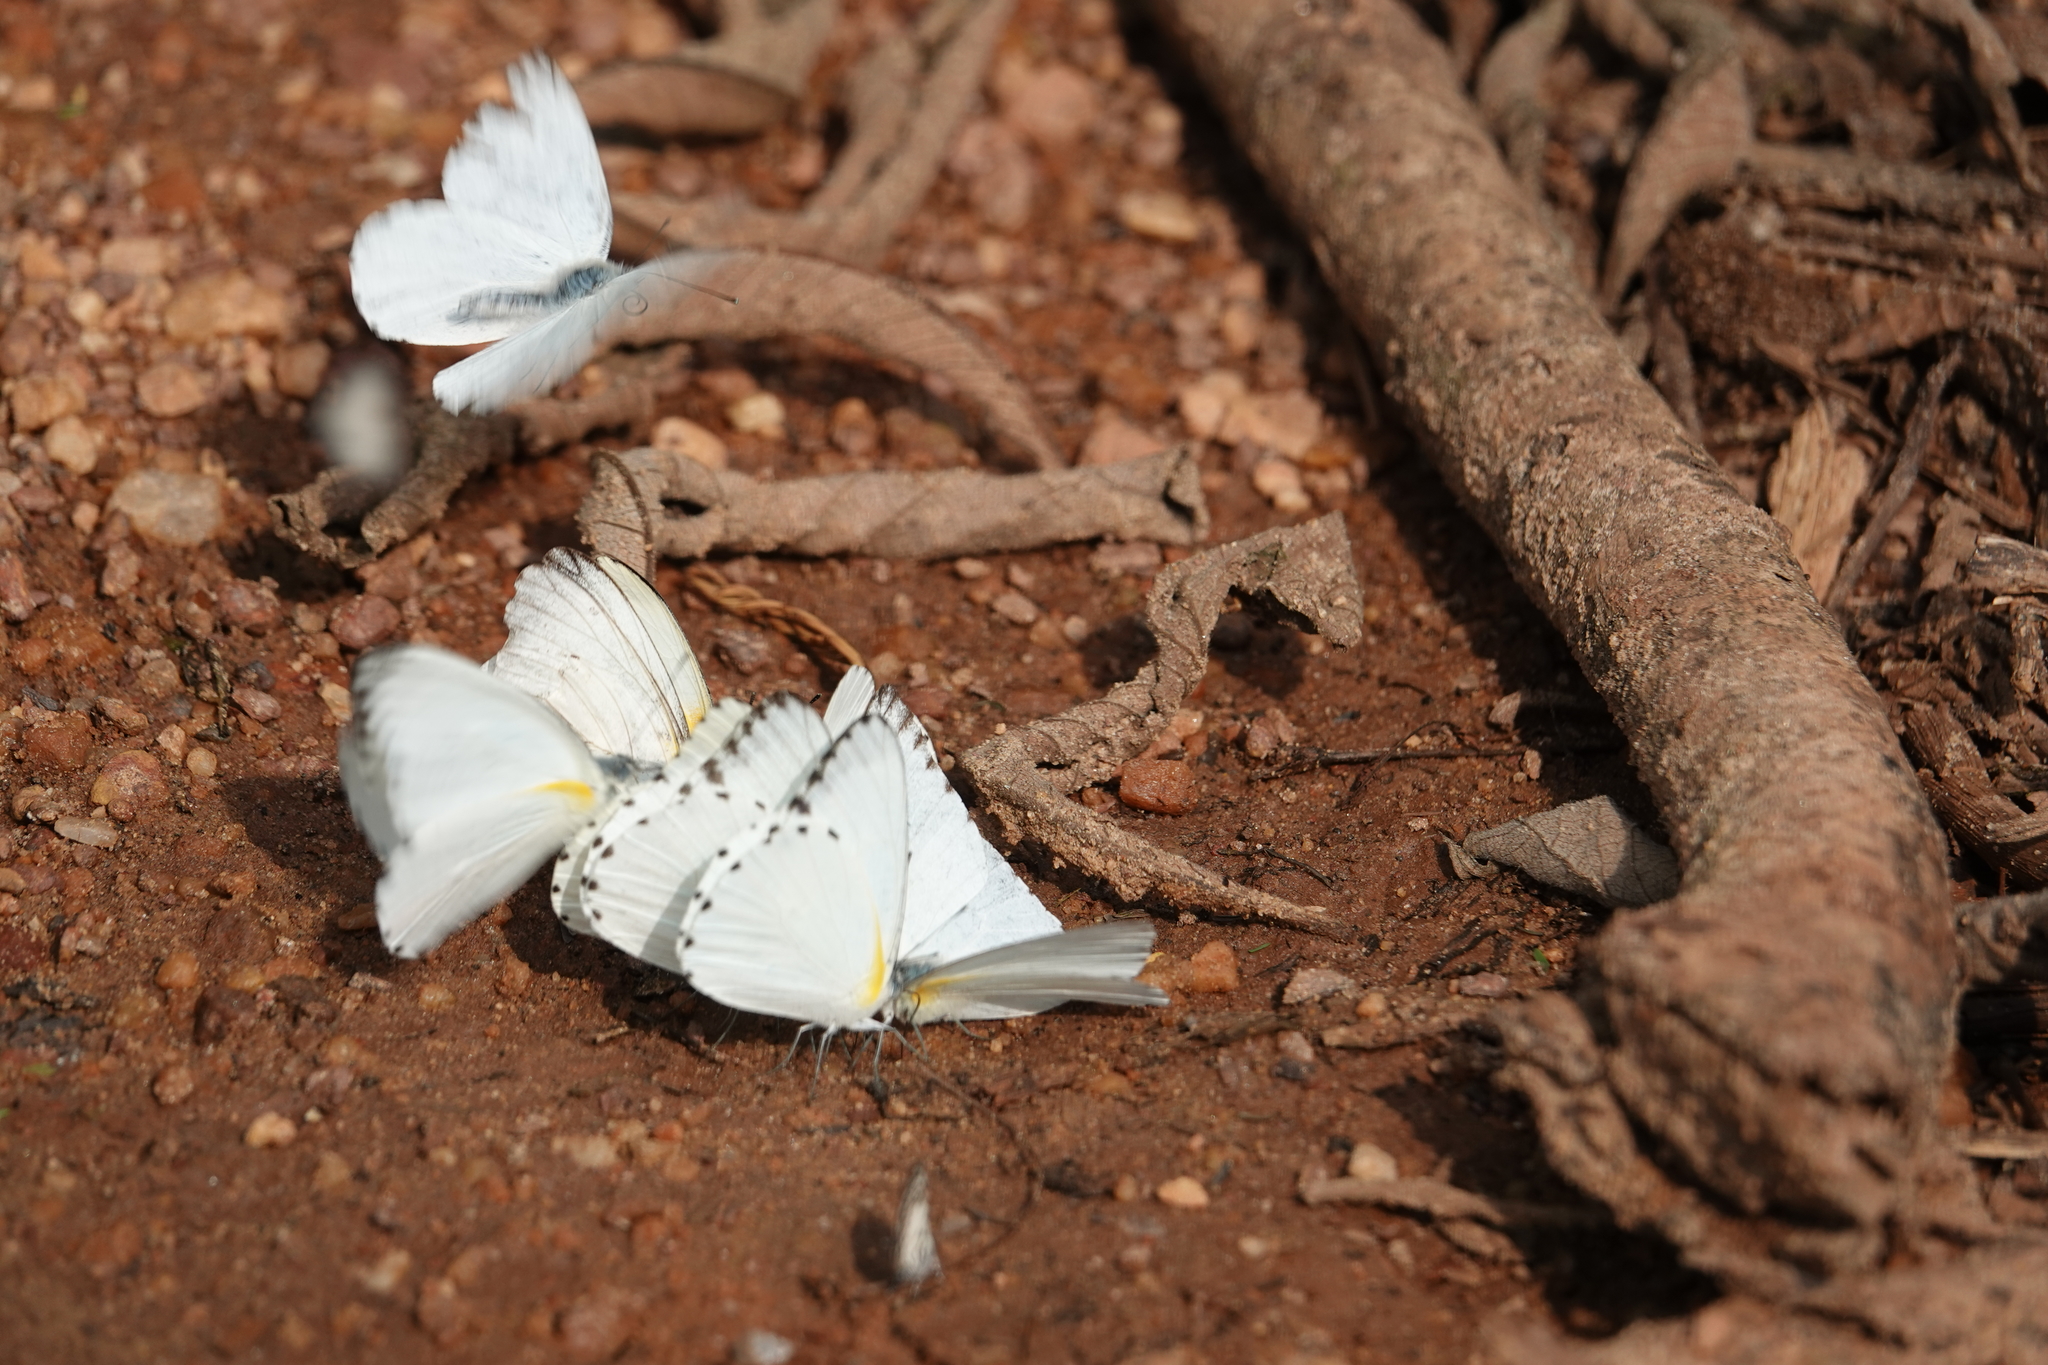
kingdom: Animalia
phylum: Arthropoda
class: Insecta
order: Lepidoptera
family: Pieridae
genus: Glutophrissa
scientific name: Glutophrissa sabina
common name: Sabine albatross
